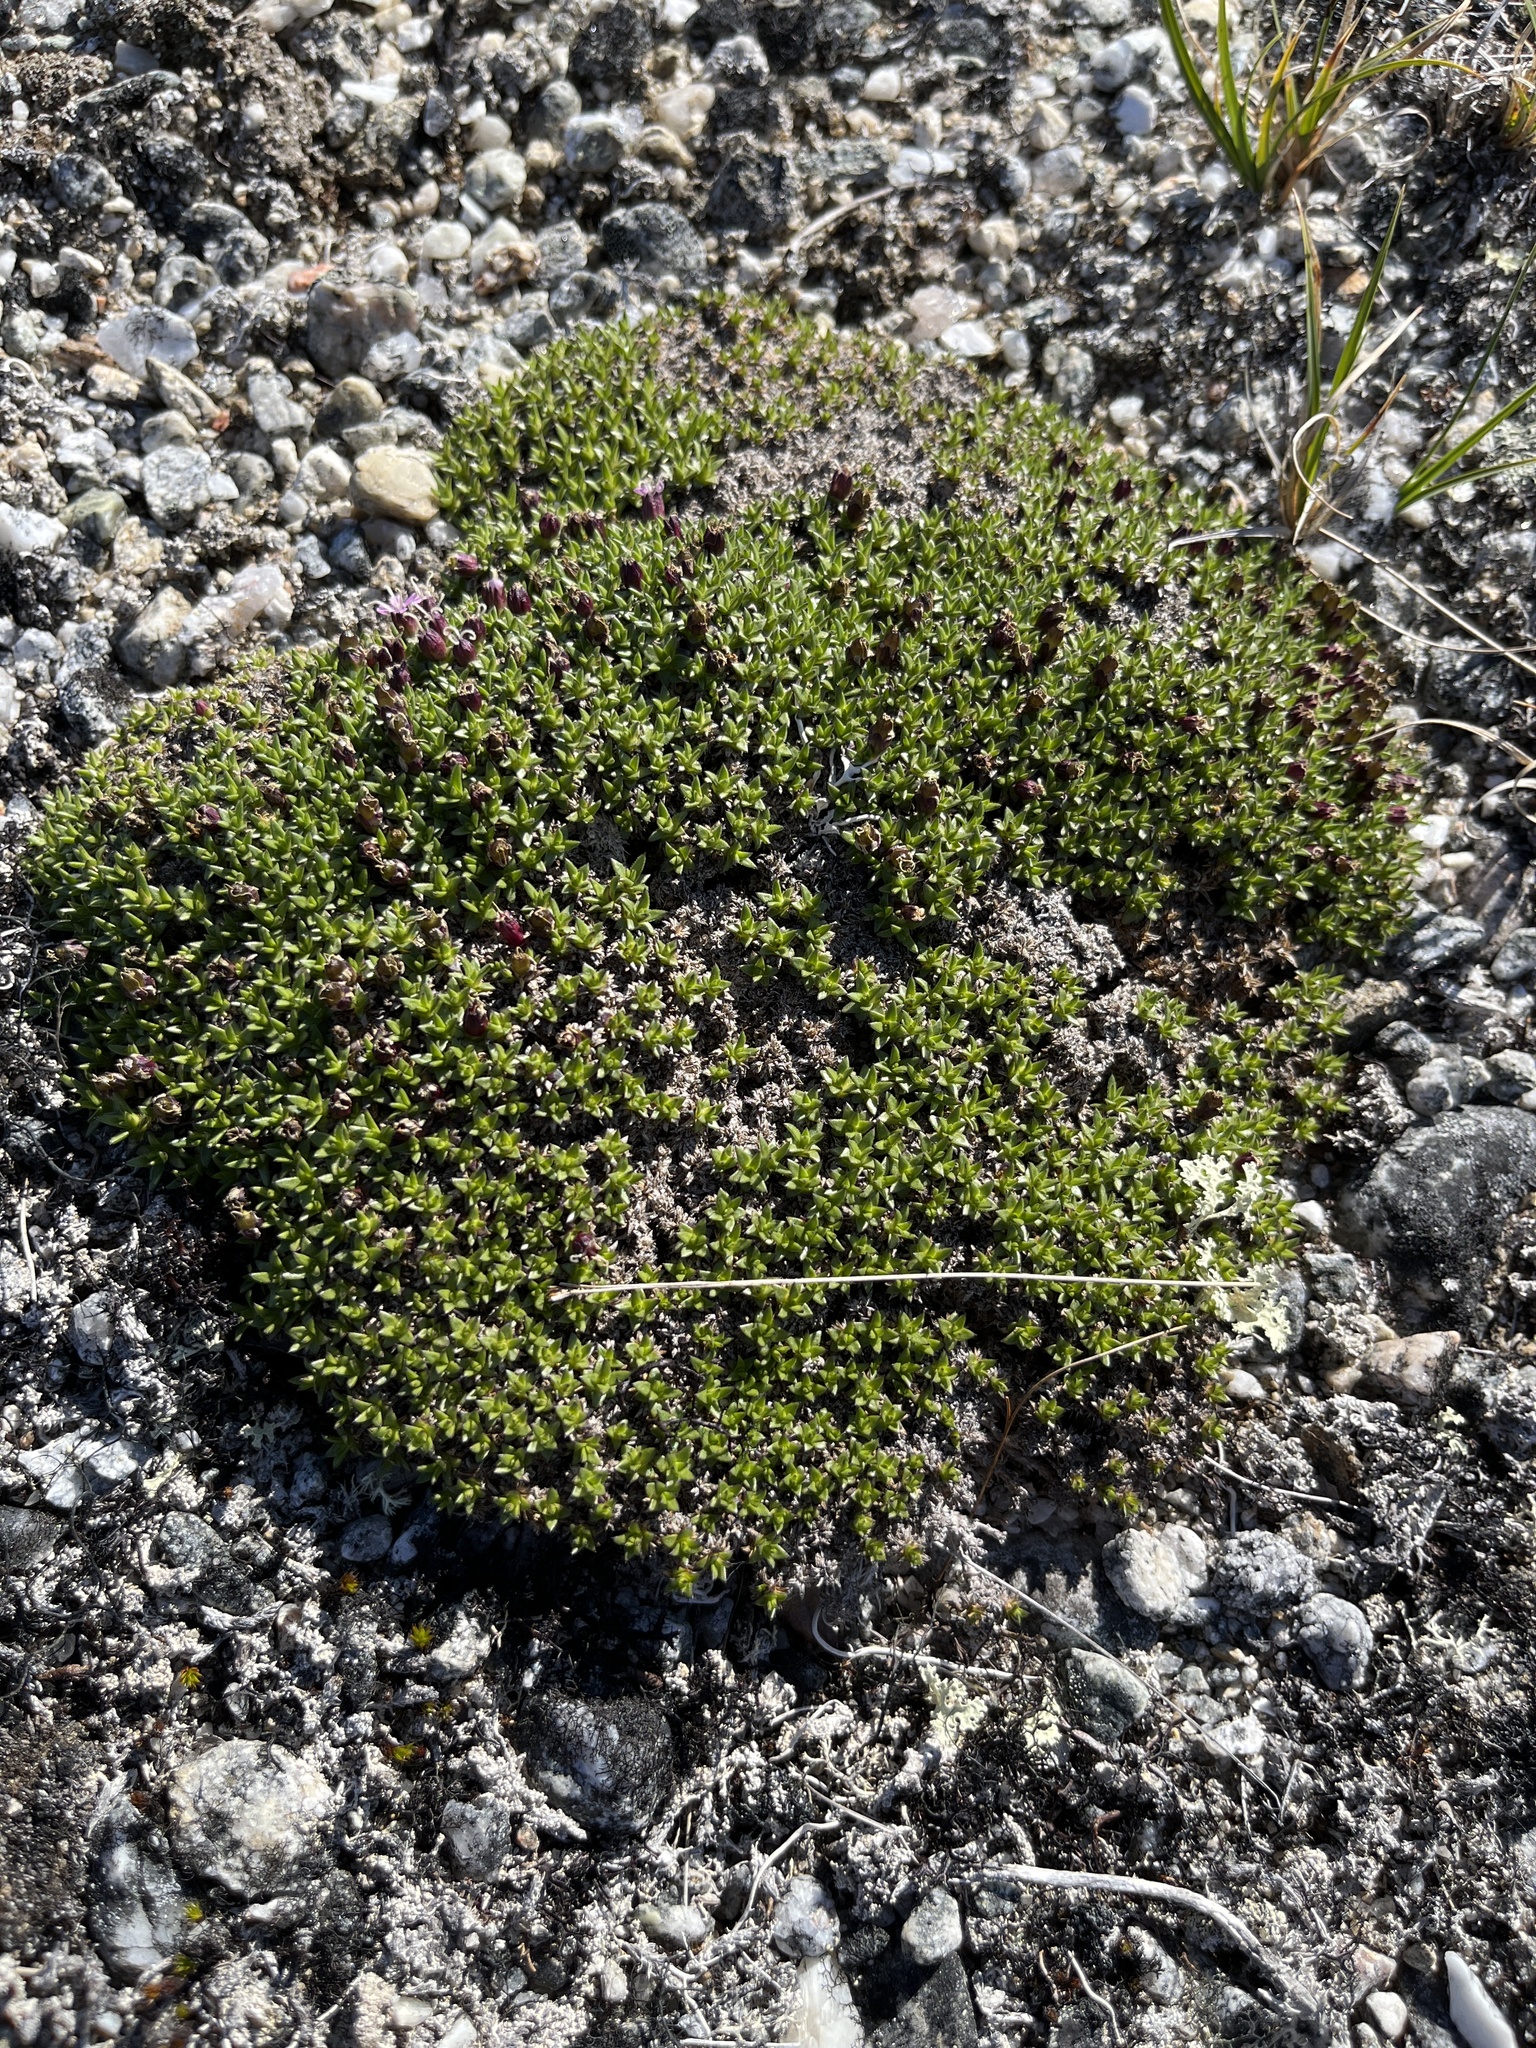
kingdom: Plantae
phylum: Tracheophyta
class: Magnoliopsida
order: Caryophyllales
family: Caryophyllaceae
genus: Silene
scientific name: Silene acaulis
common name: Moss campion
